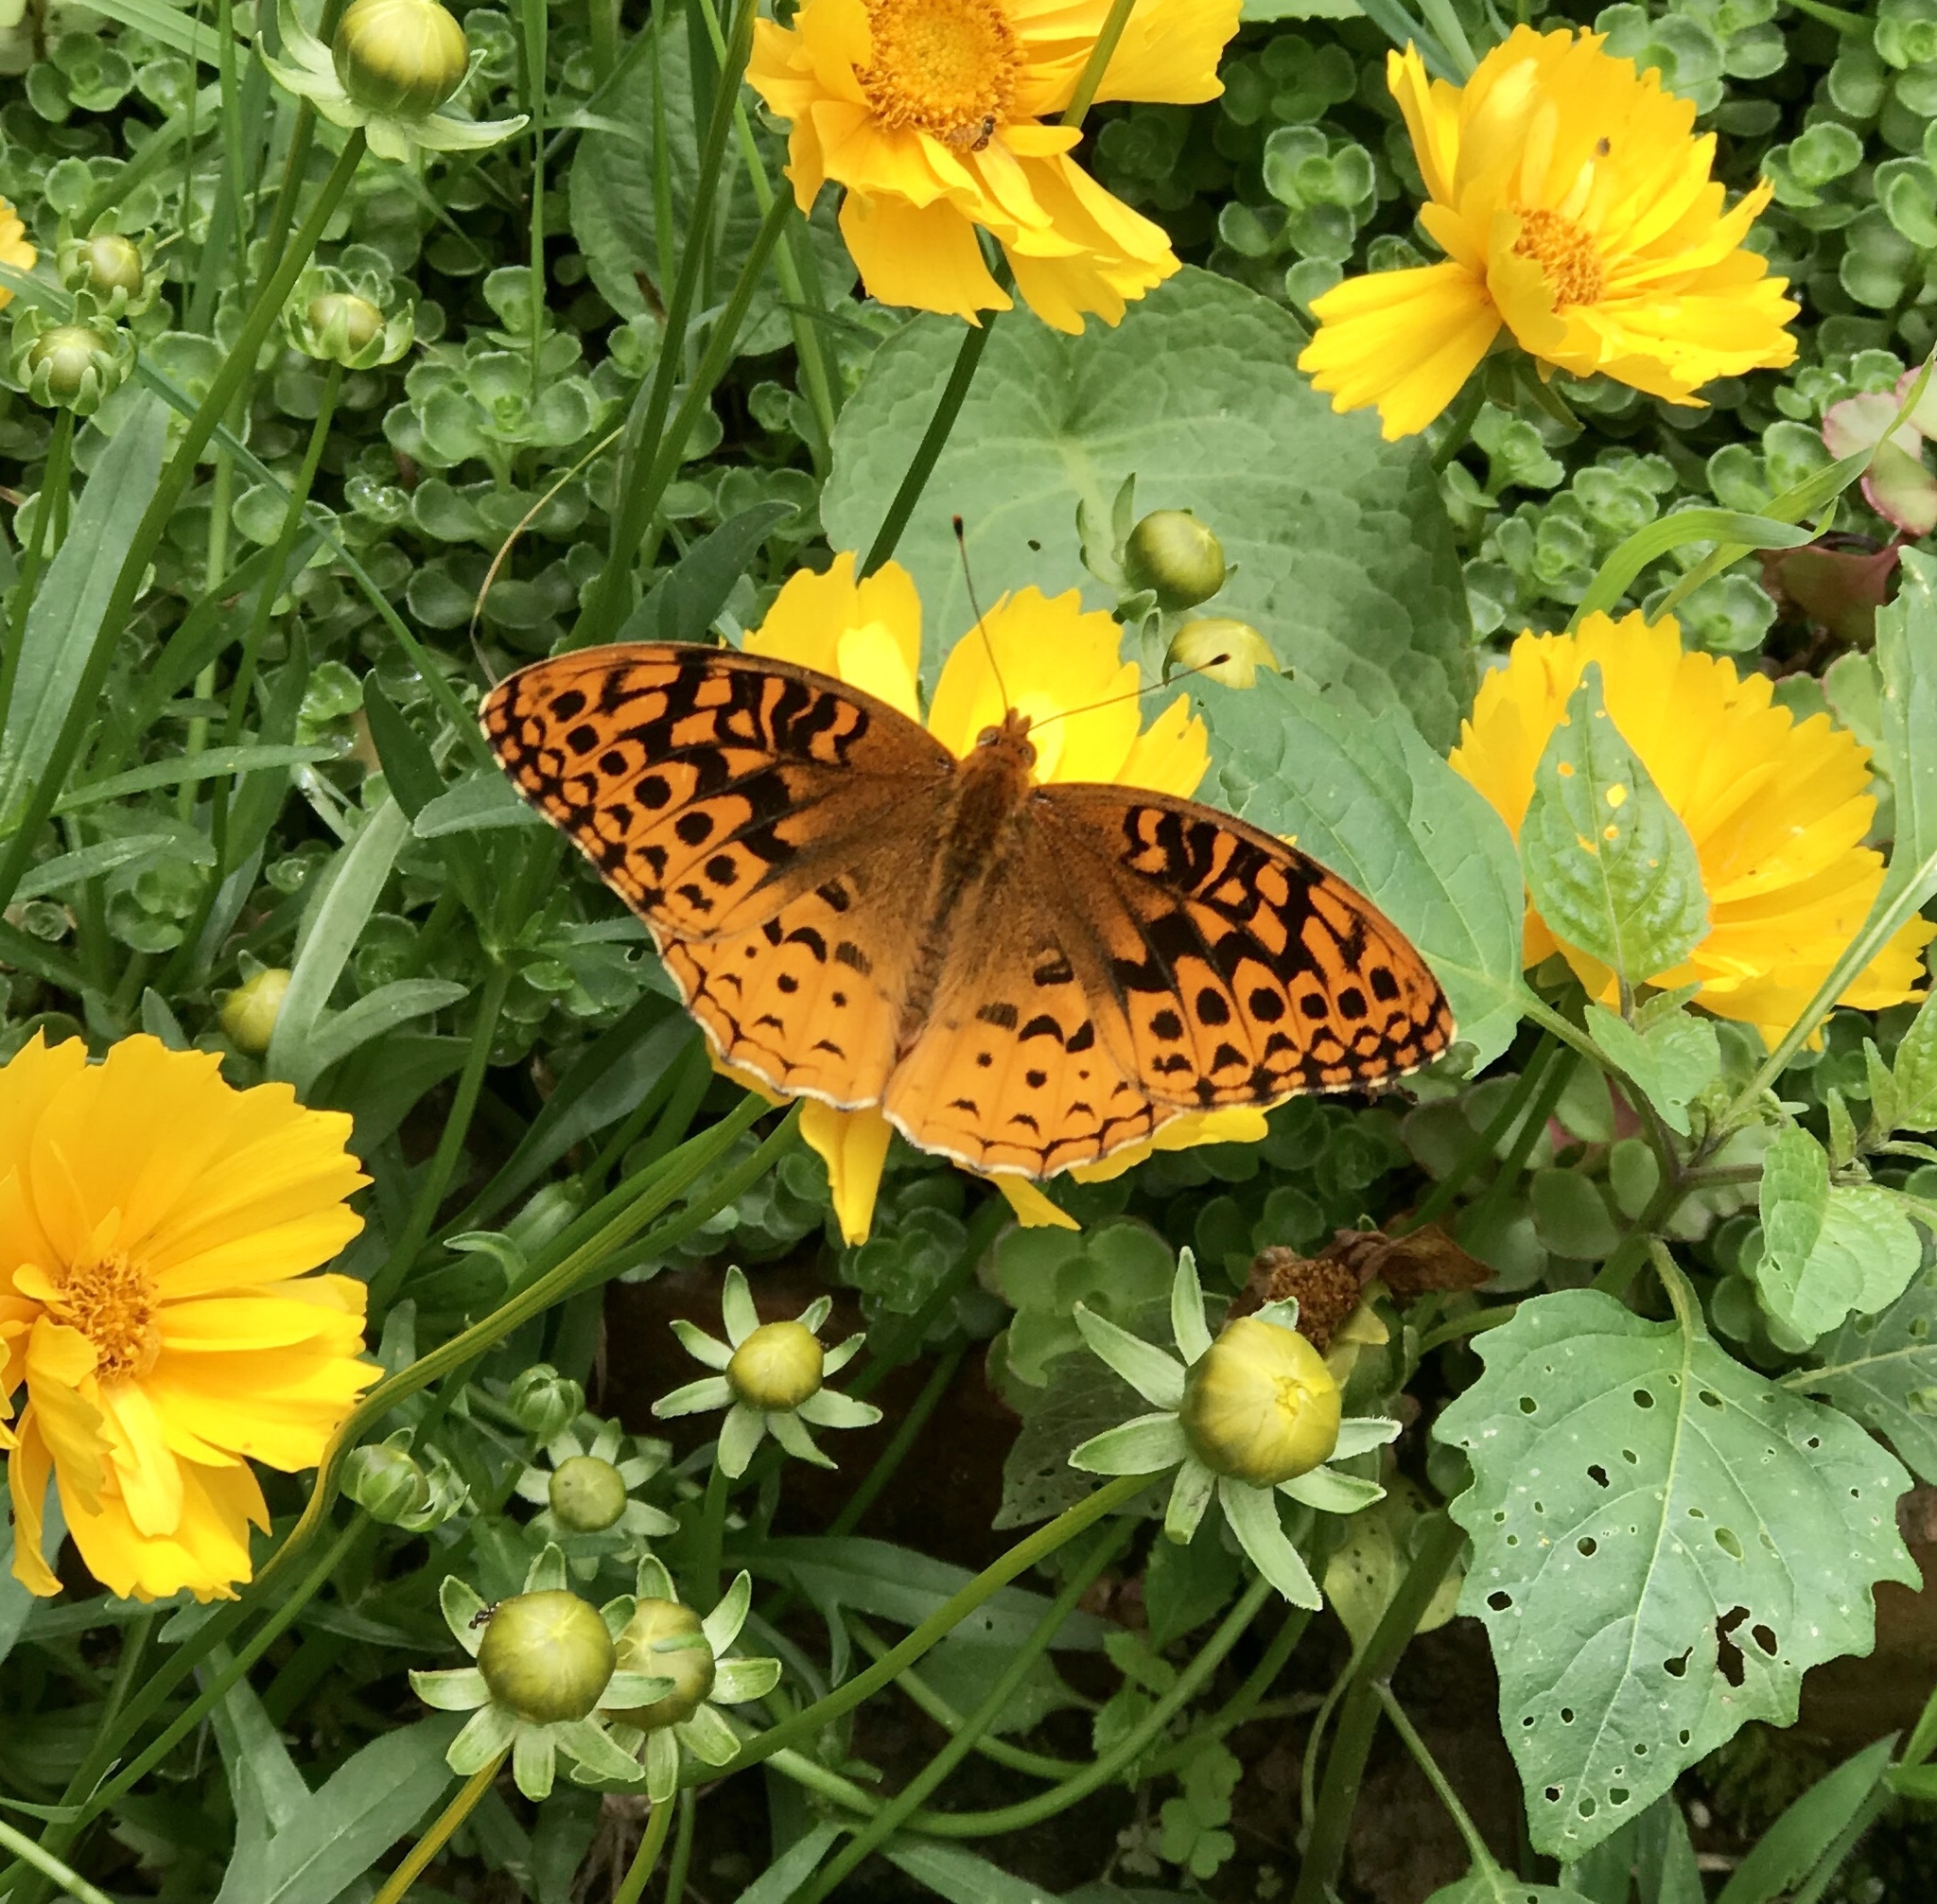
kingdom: Animalia
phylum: Arthropoda
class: Insecta
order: Lepidoptera
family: Nymphalidae
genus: Speyeria
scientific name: Speyeria cybele
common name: Great spangled fritillary
